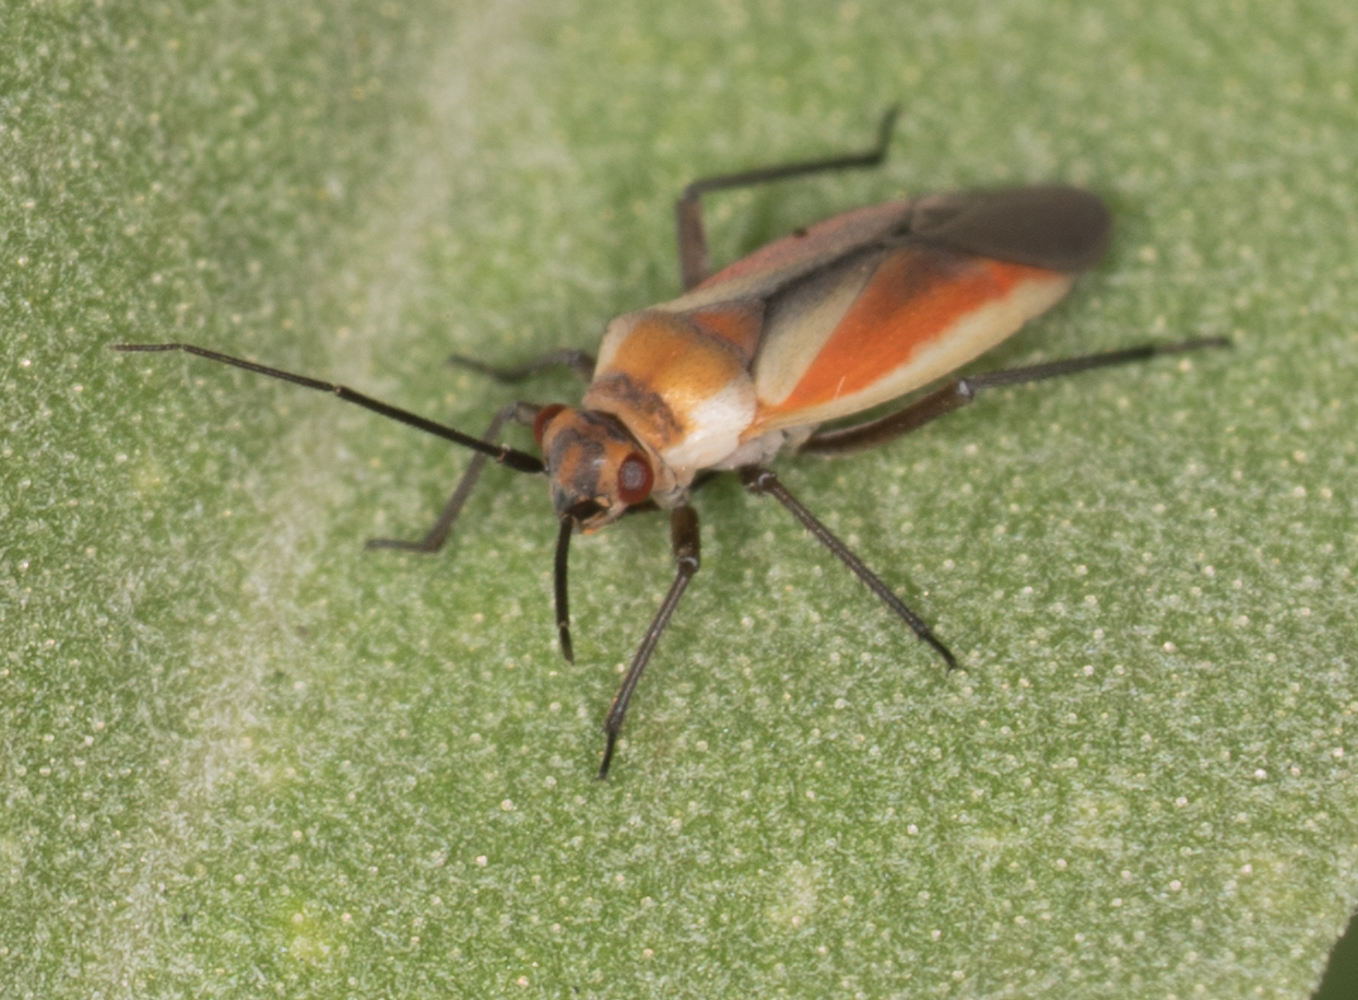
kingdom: Animalia
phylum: Arthropoda
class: Insecta
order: Hemiptera
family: Miridae
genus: Lopidea
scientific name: Lopidea marginata
